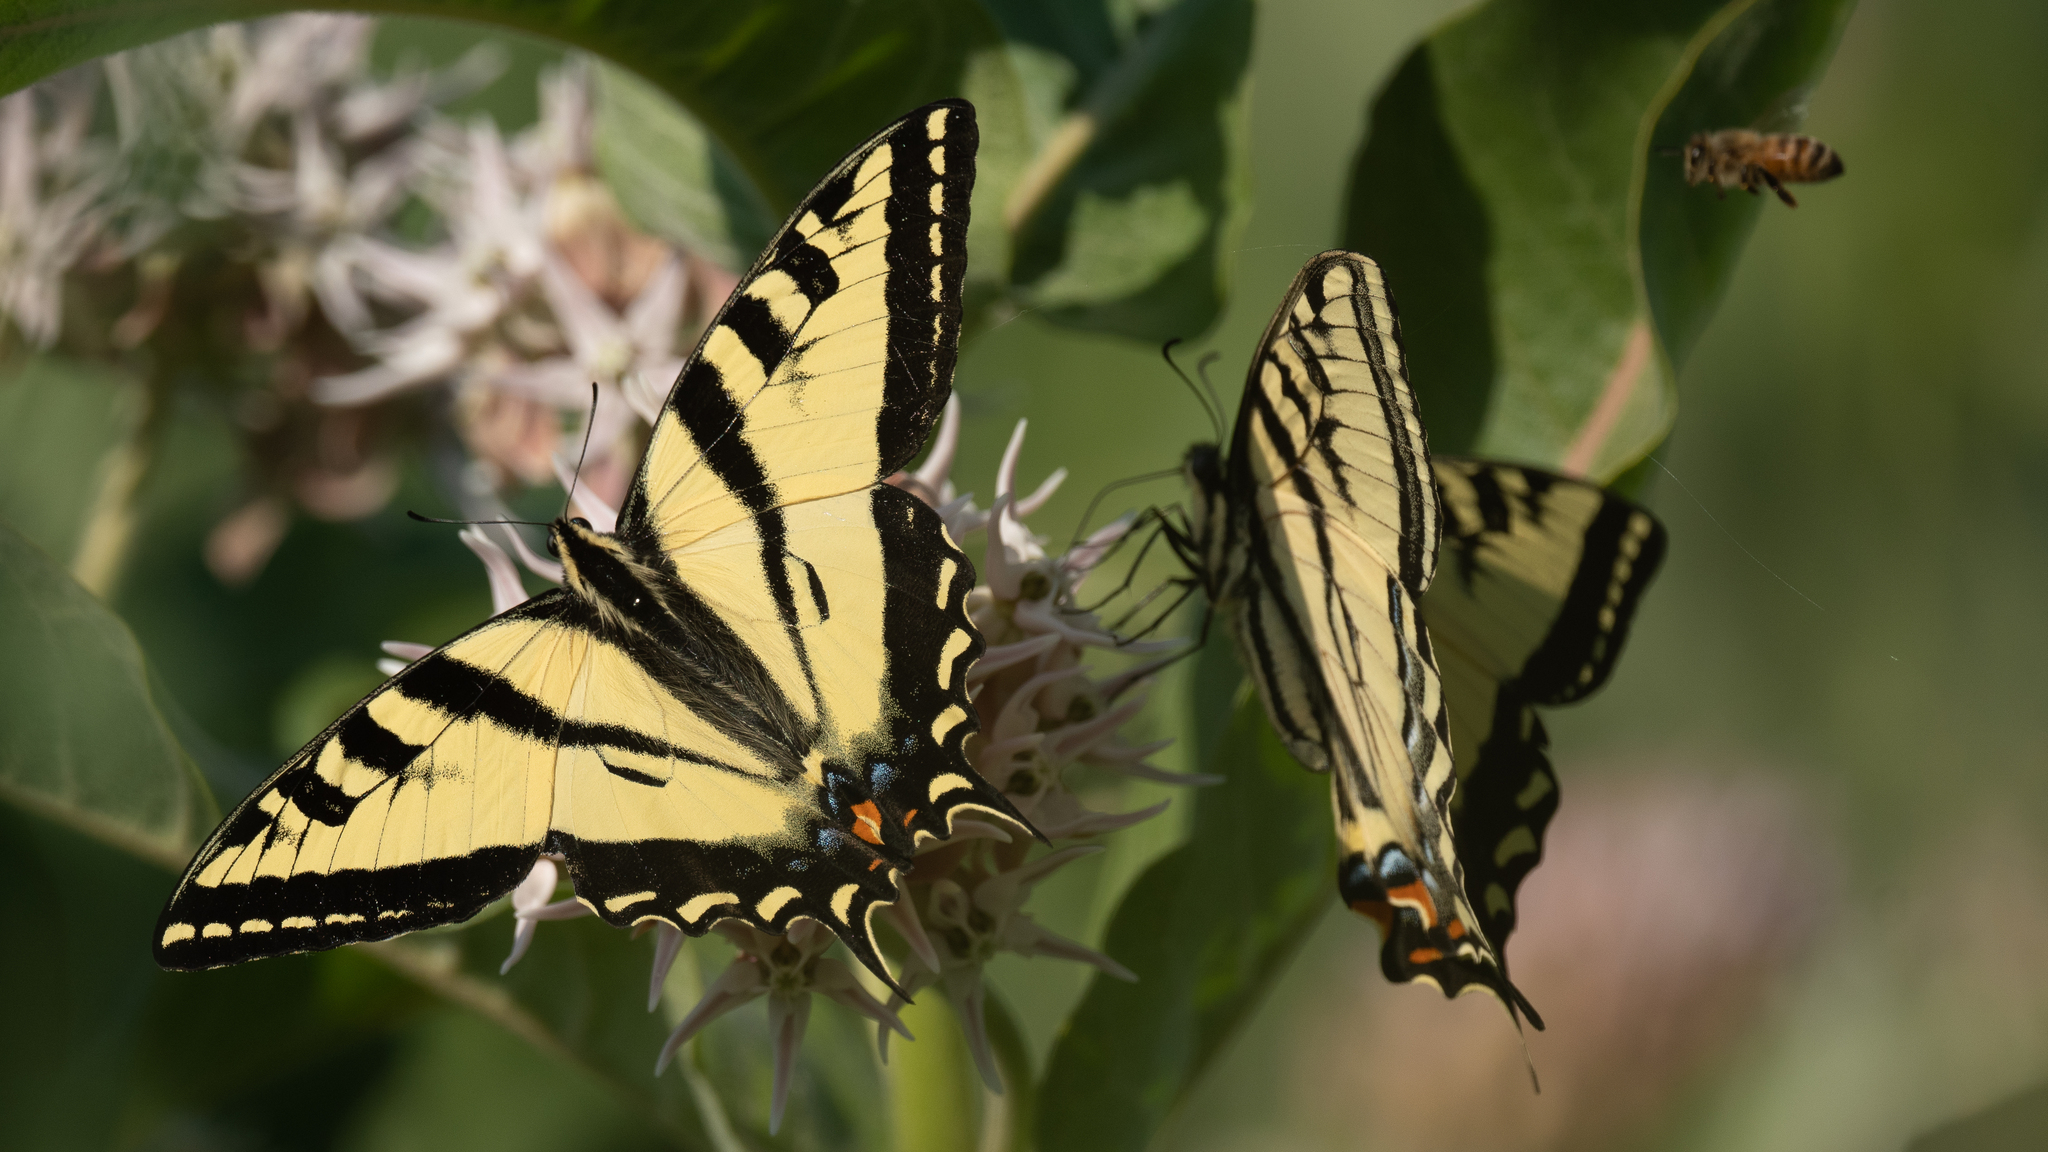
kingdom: Animalia
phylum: Arthropoda
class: Insecta
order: Lepidoptera
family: Papilionidae
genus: Papilio
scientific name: Papilio rutulus
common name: Western tiger swallowtail
